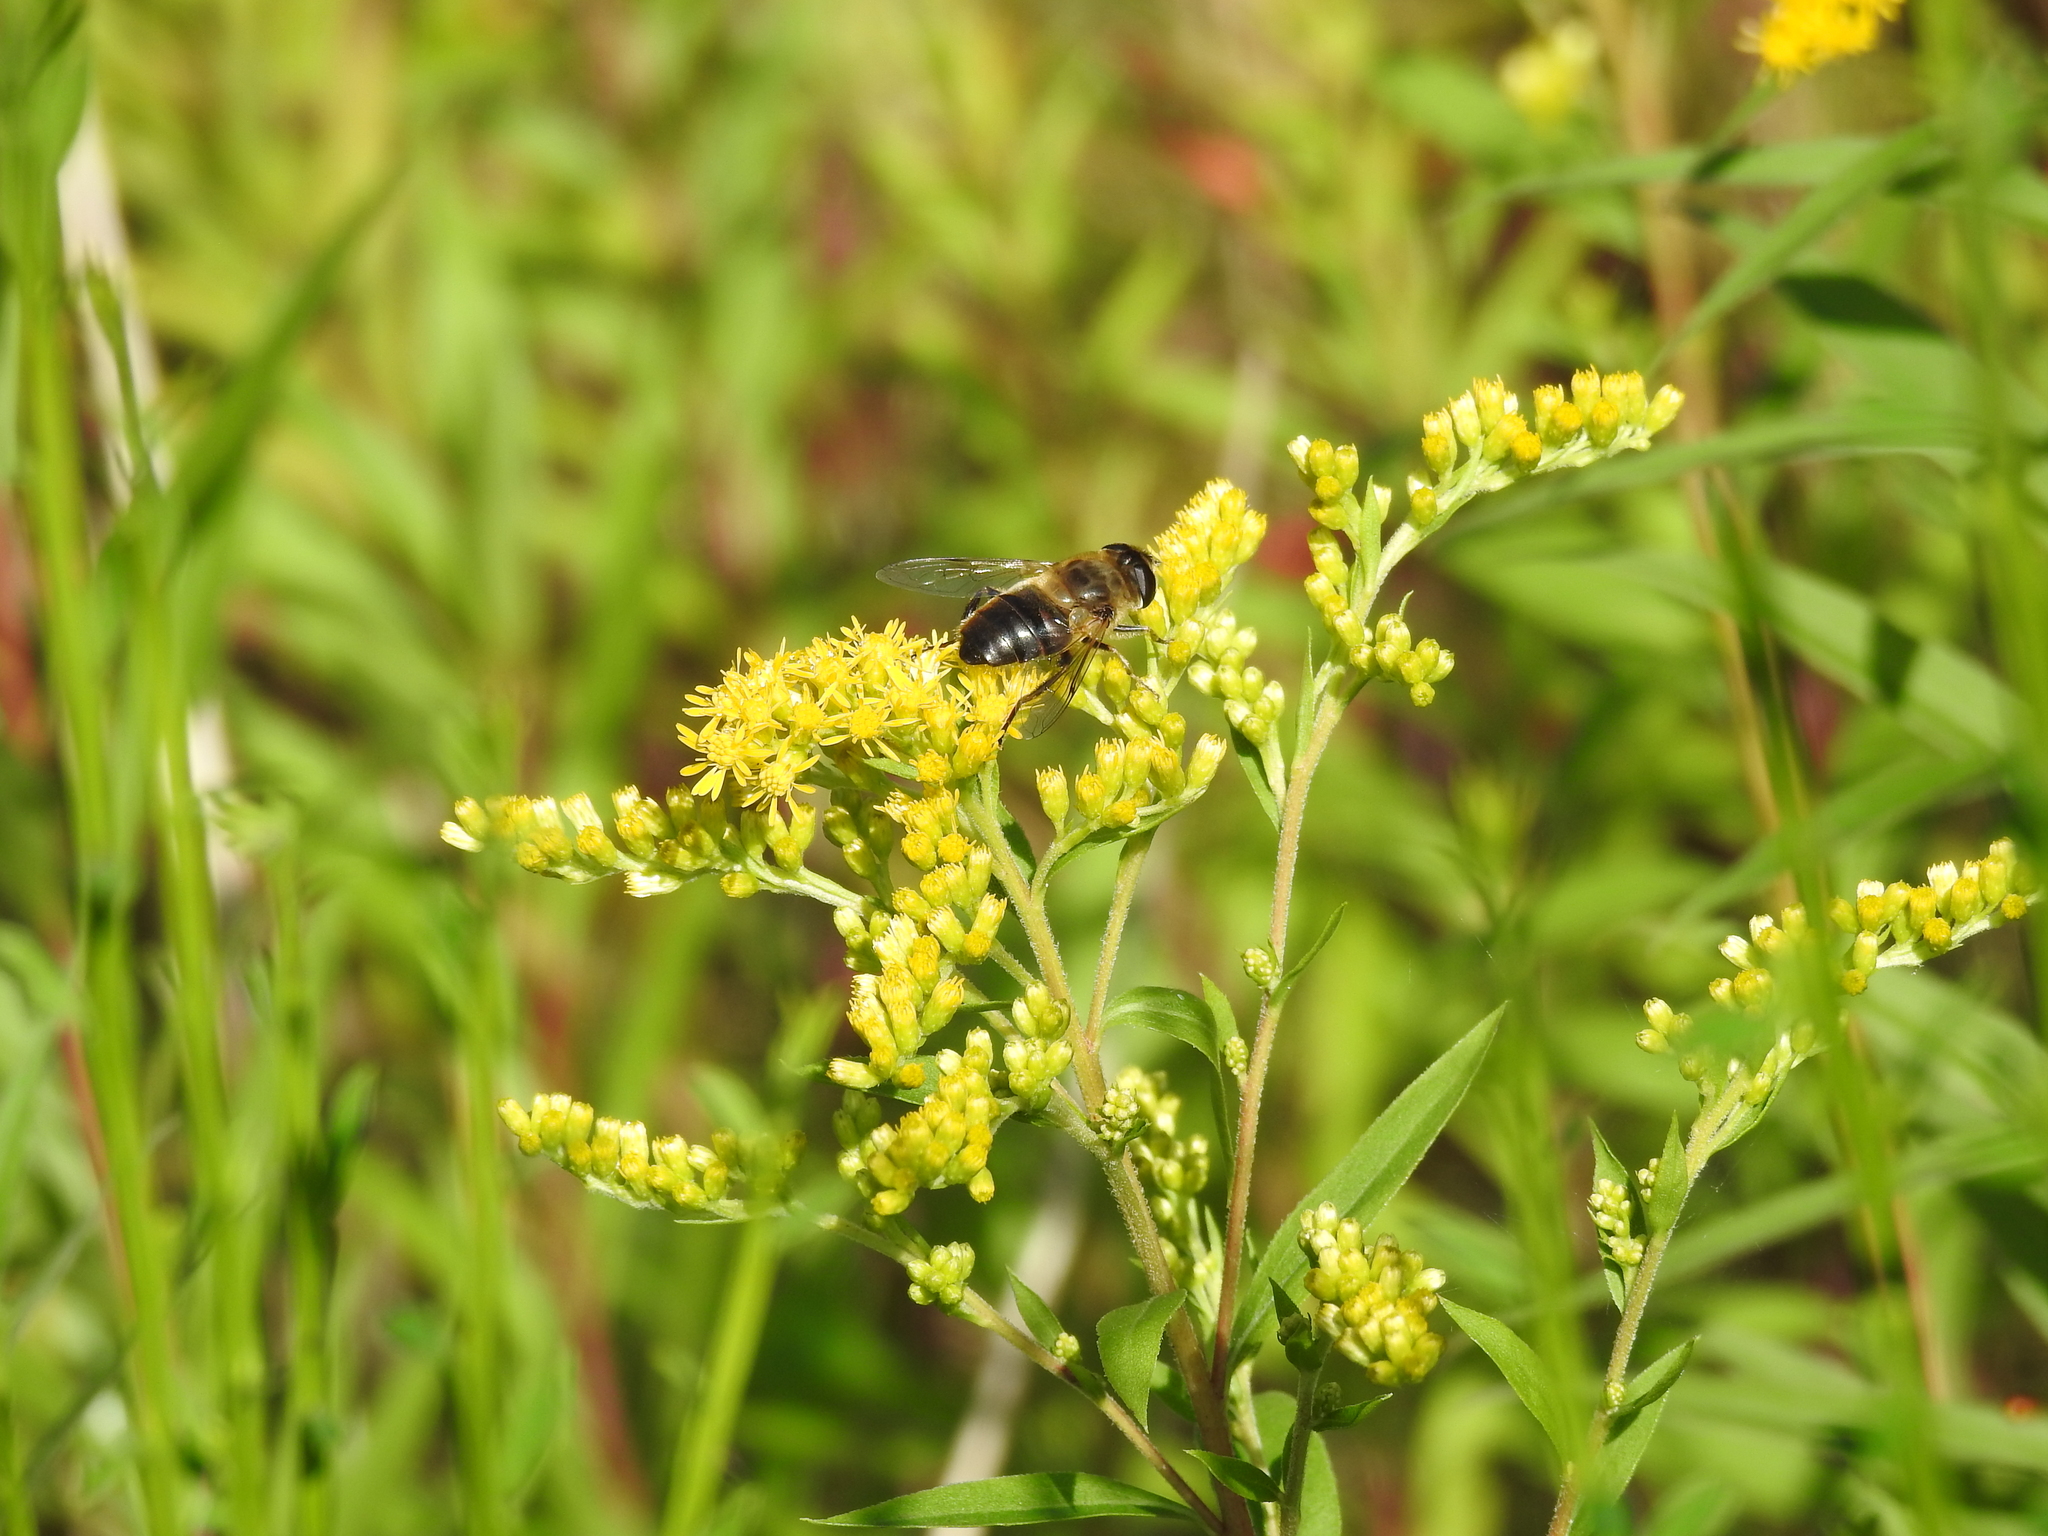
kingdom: Animalia
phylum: Arthropoda
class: Insecta
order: Diptera
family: Syrphidae
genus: Eristalis
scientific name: Eristalis tenax
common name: Drone fly
